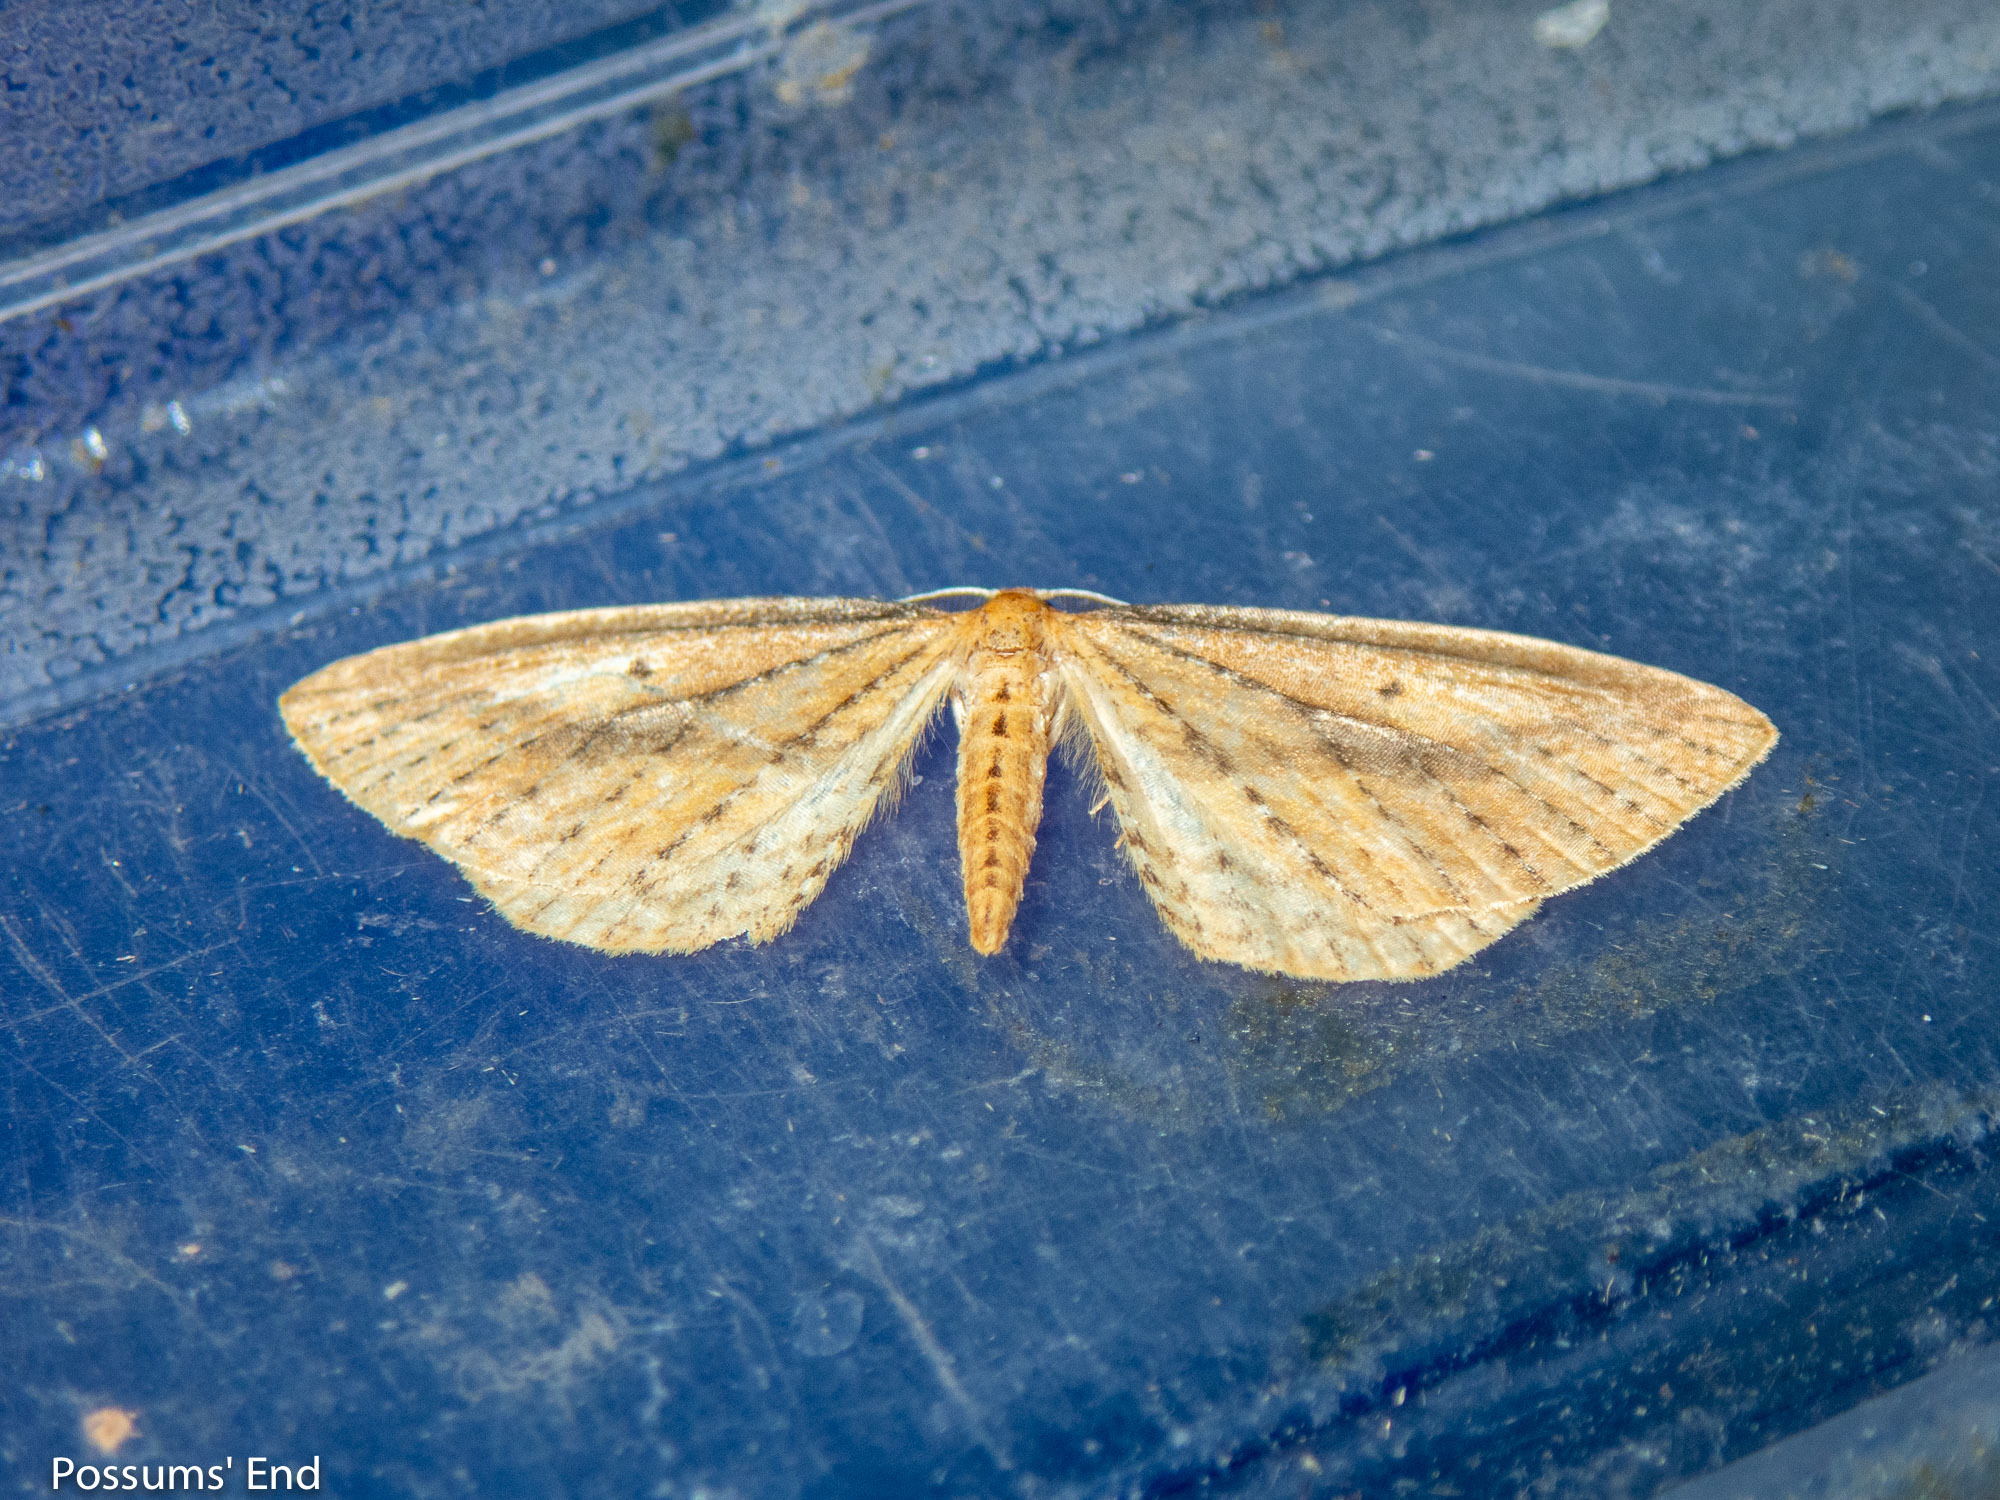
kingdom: Animalia
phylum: Arthropoda
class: Insecta
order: Lepidoptera
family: Geometridae
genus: Epiphryne
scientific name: Epiphryne charidema
